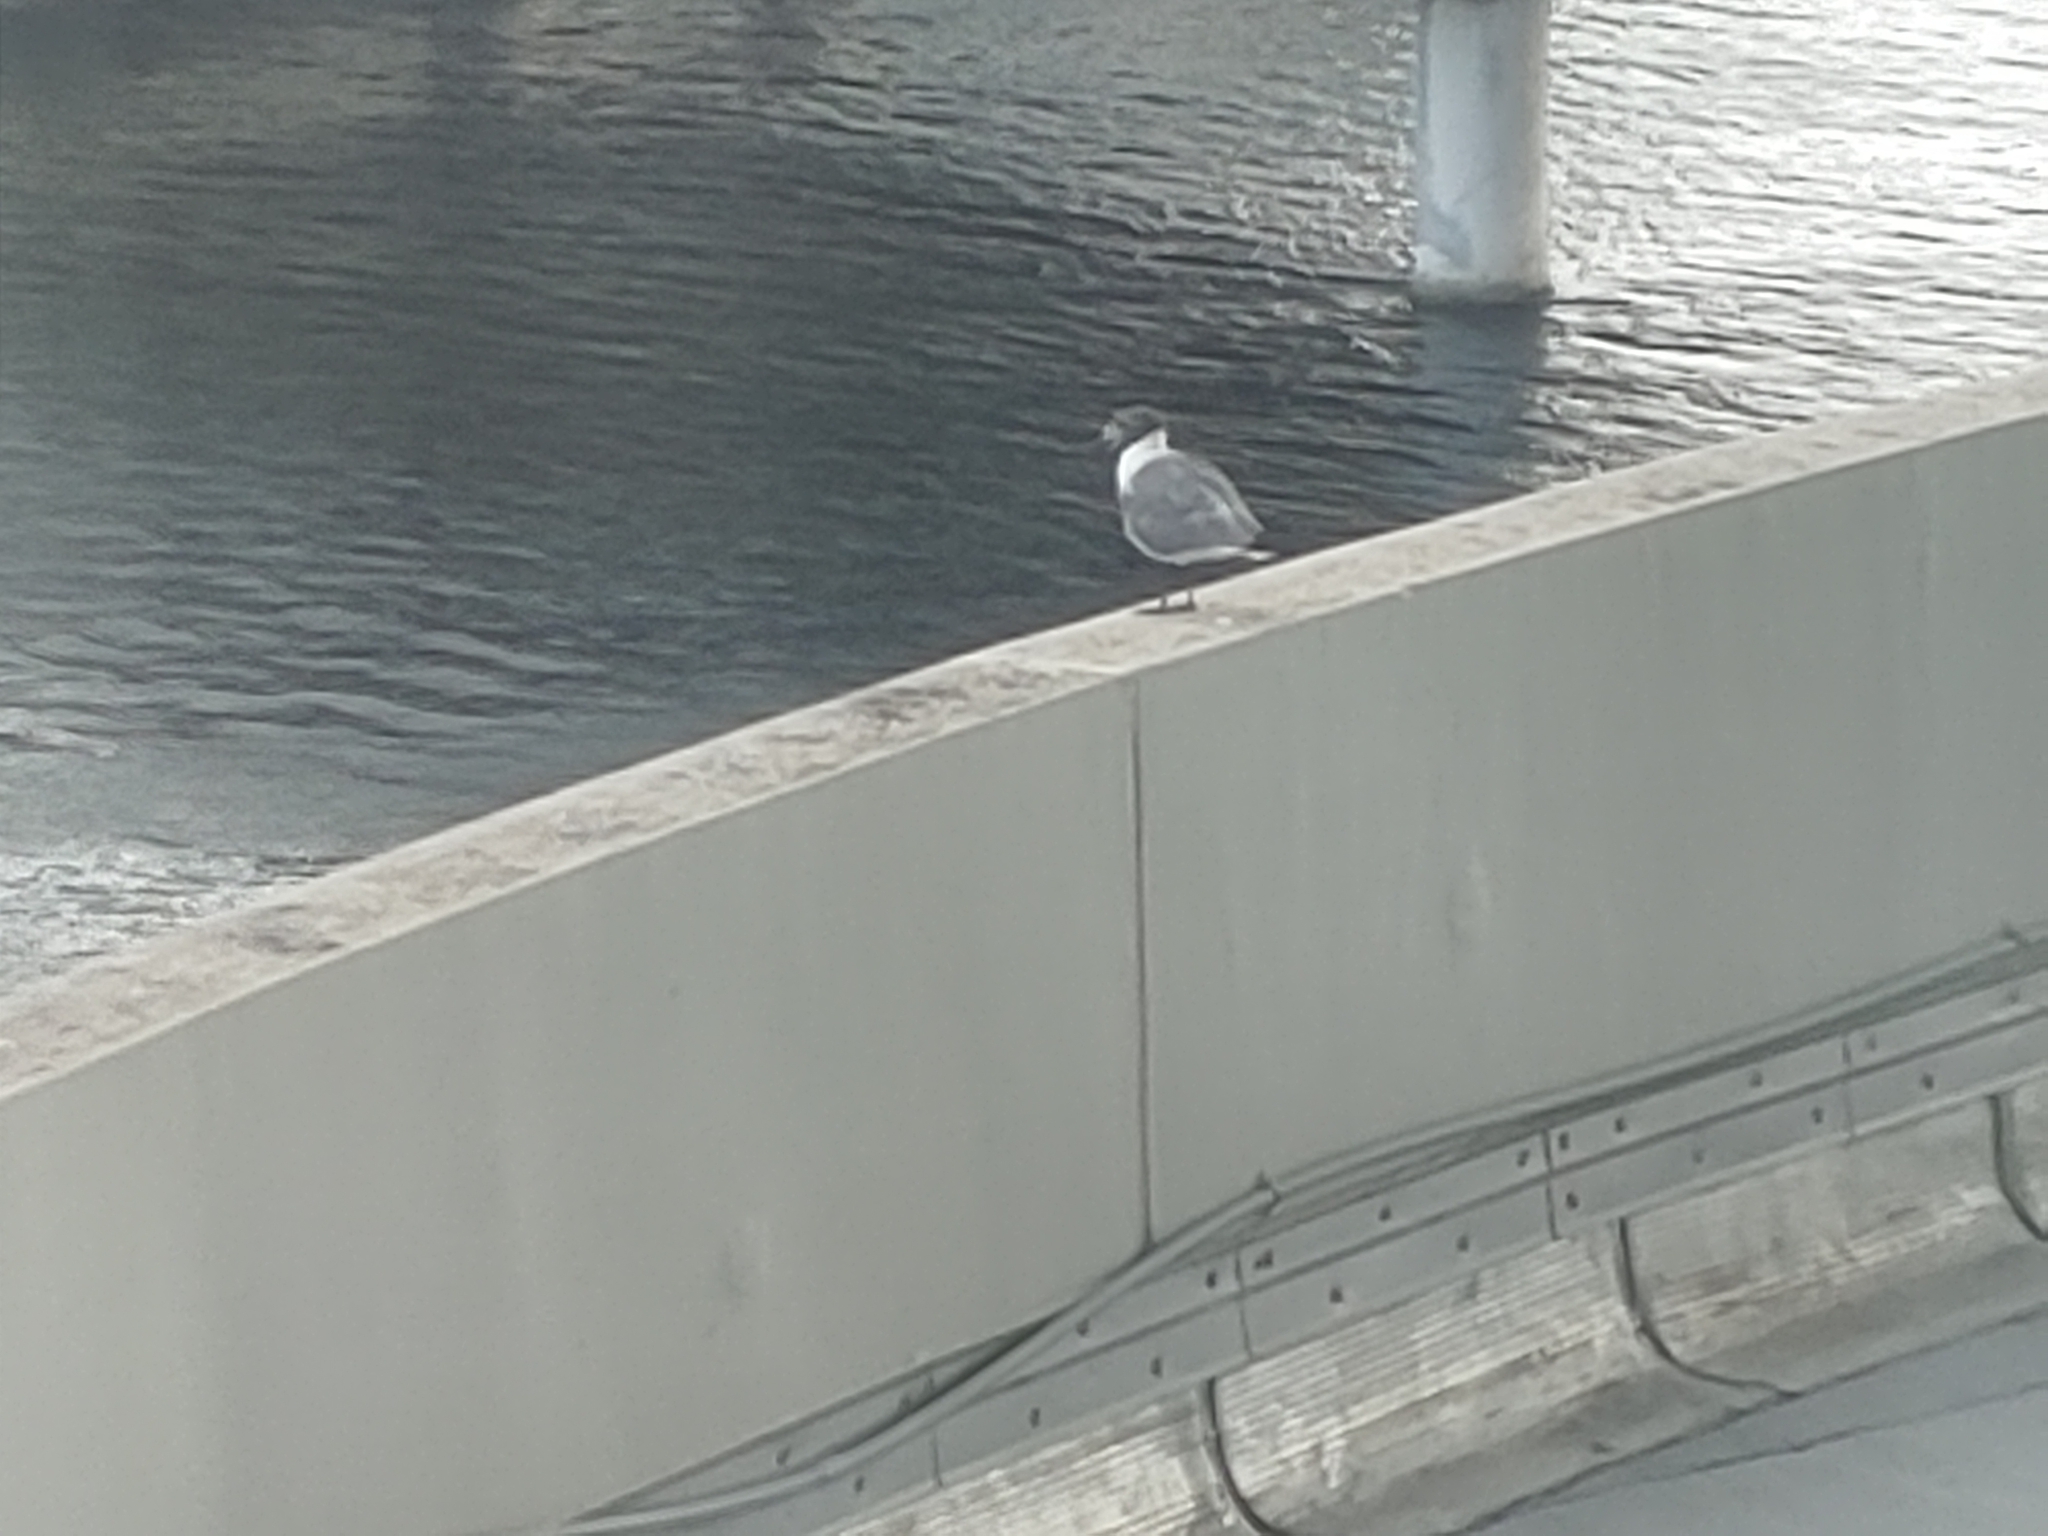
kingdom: Animalia
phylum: Chordata
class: Aves
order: Charadriiformes
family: Laridae
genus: Leucophaeus
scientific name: Leucophaeus atricilla
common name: Laughing gull
